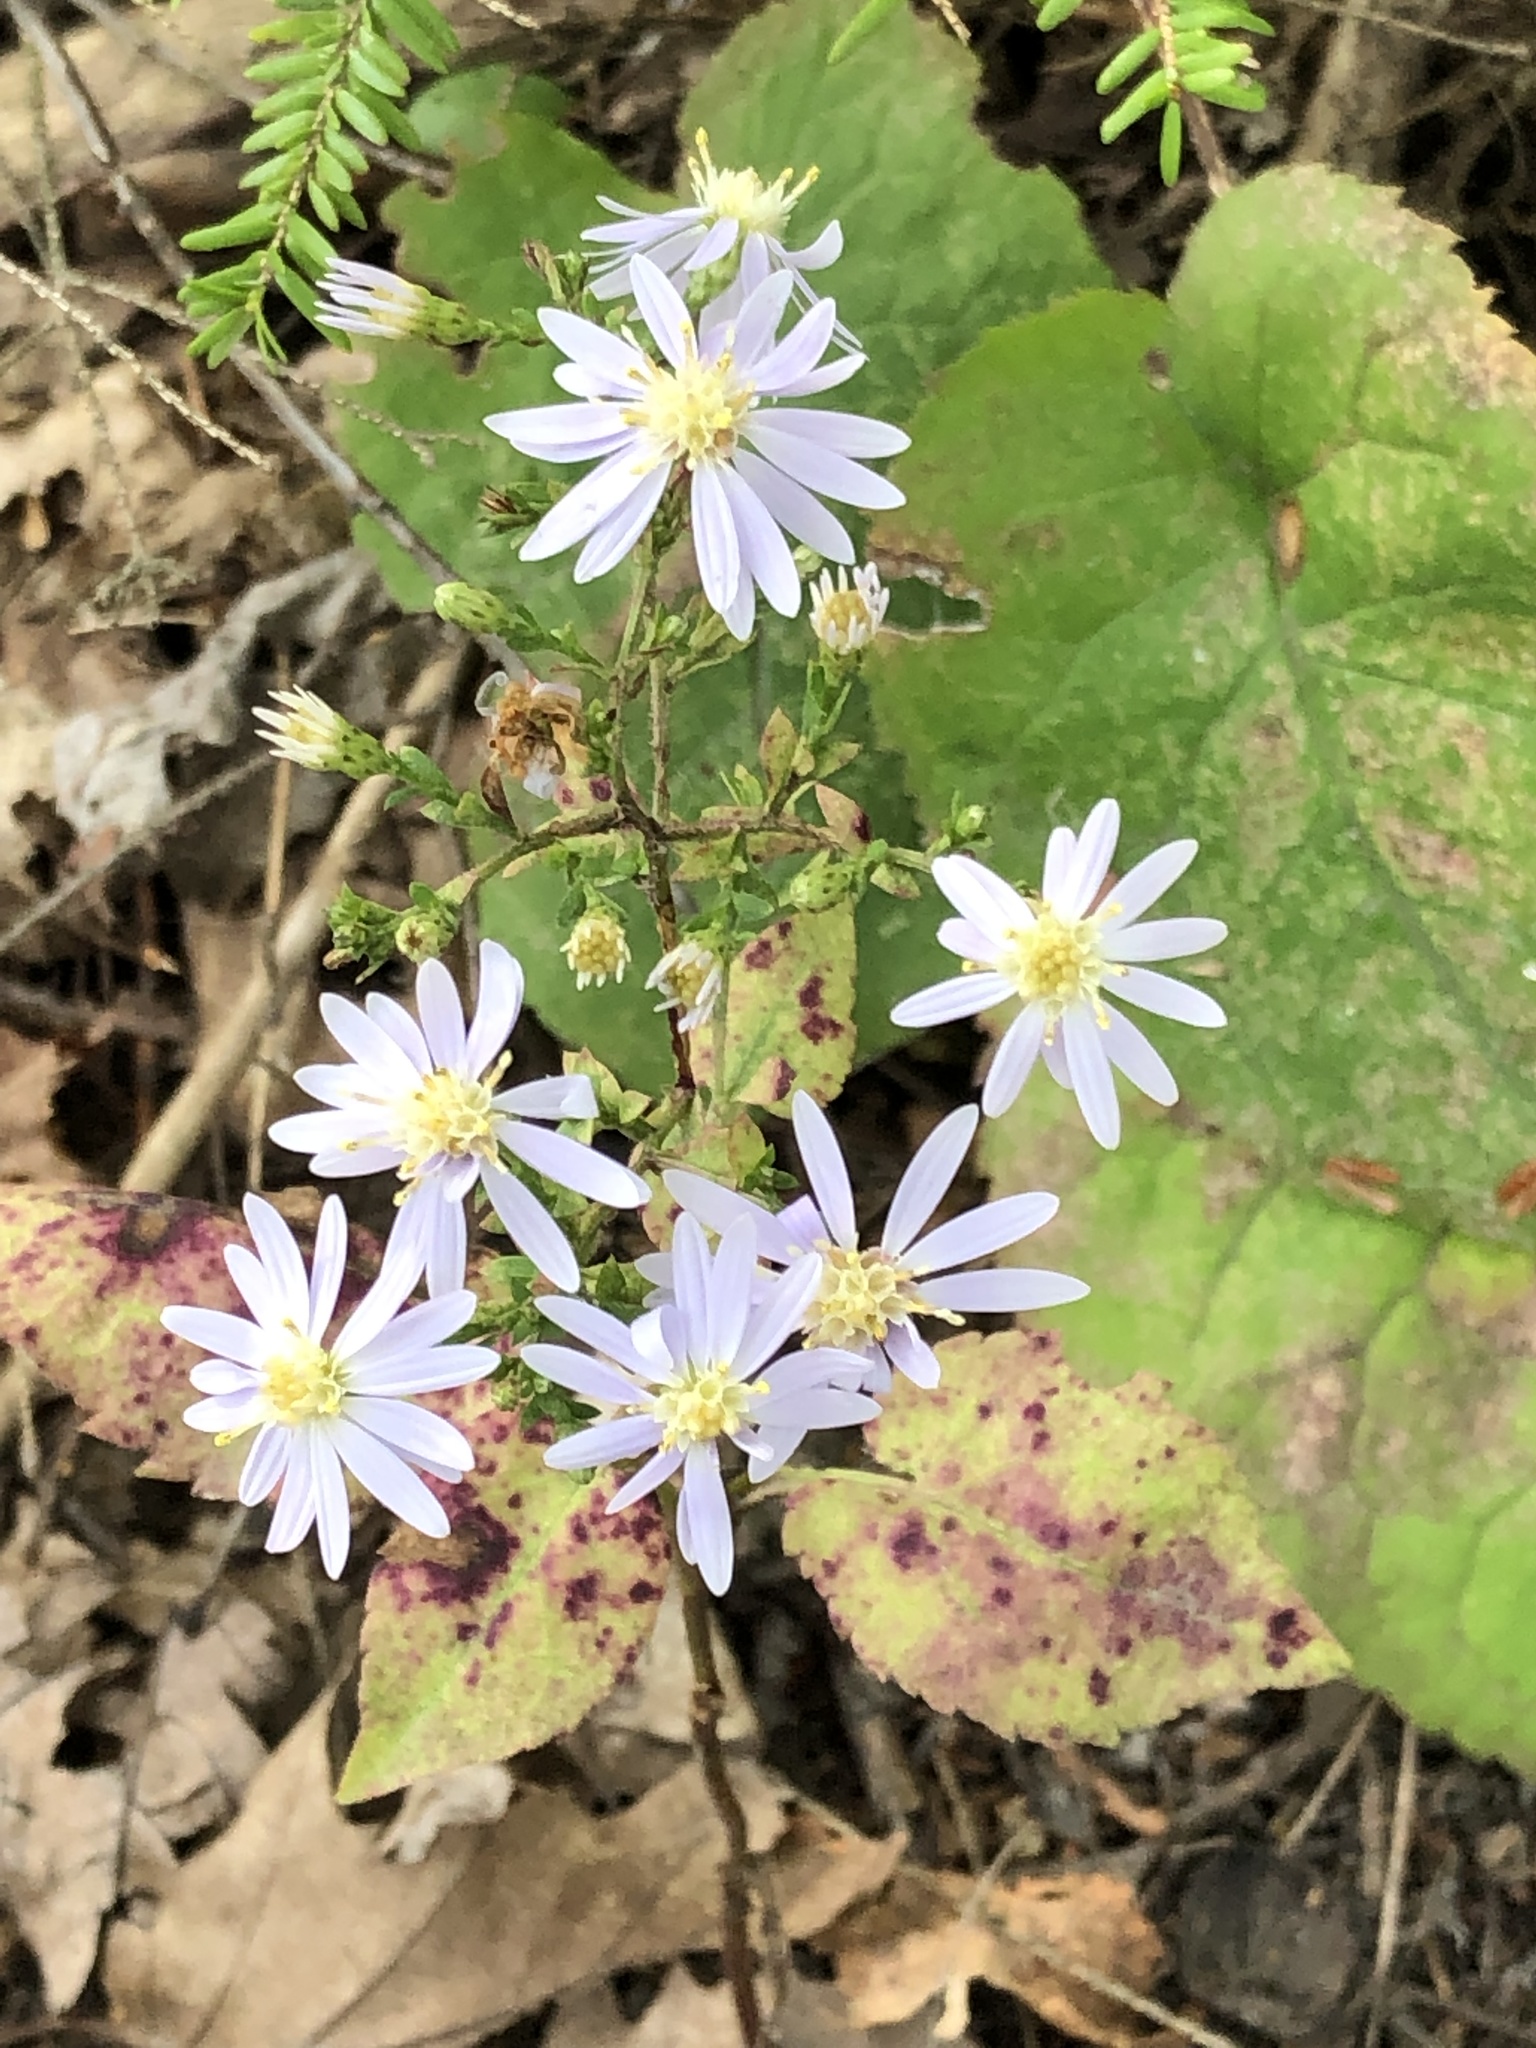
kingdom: Plantae
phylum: Tracheophyta
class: Magnoliopsida
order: Asterales
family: Asteraceae
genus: Symphyotrichum
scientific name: Symphyotrichum cordifolium
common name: Beeweed
